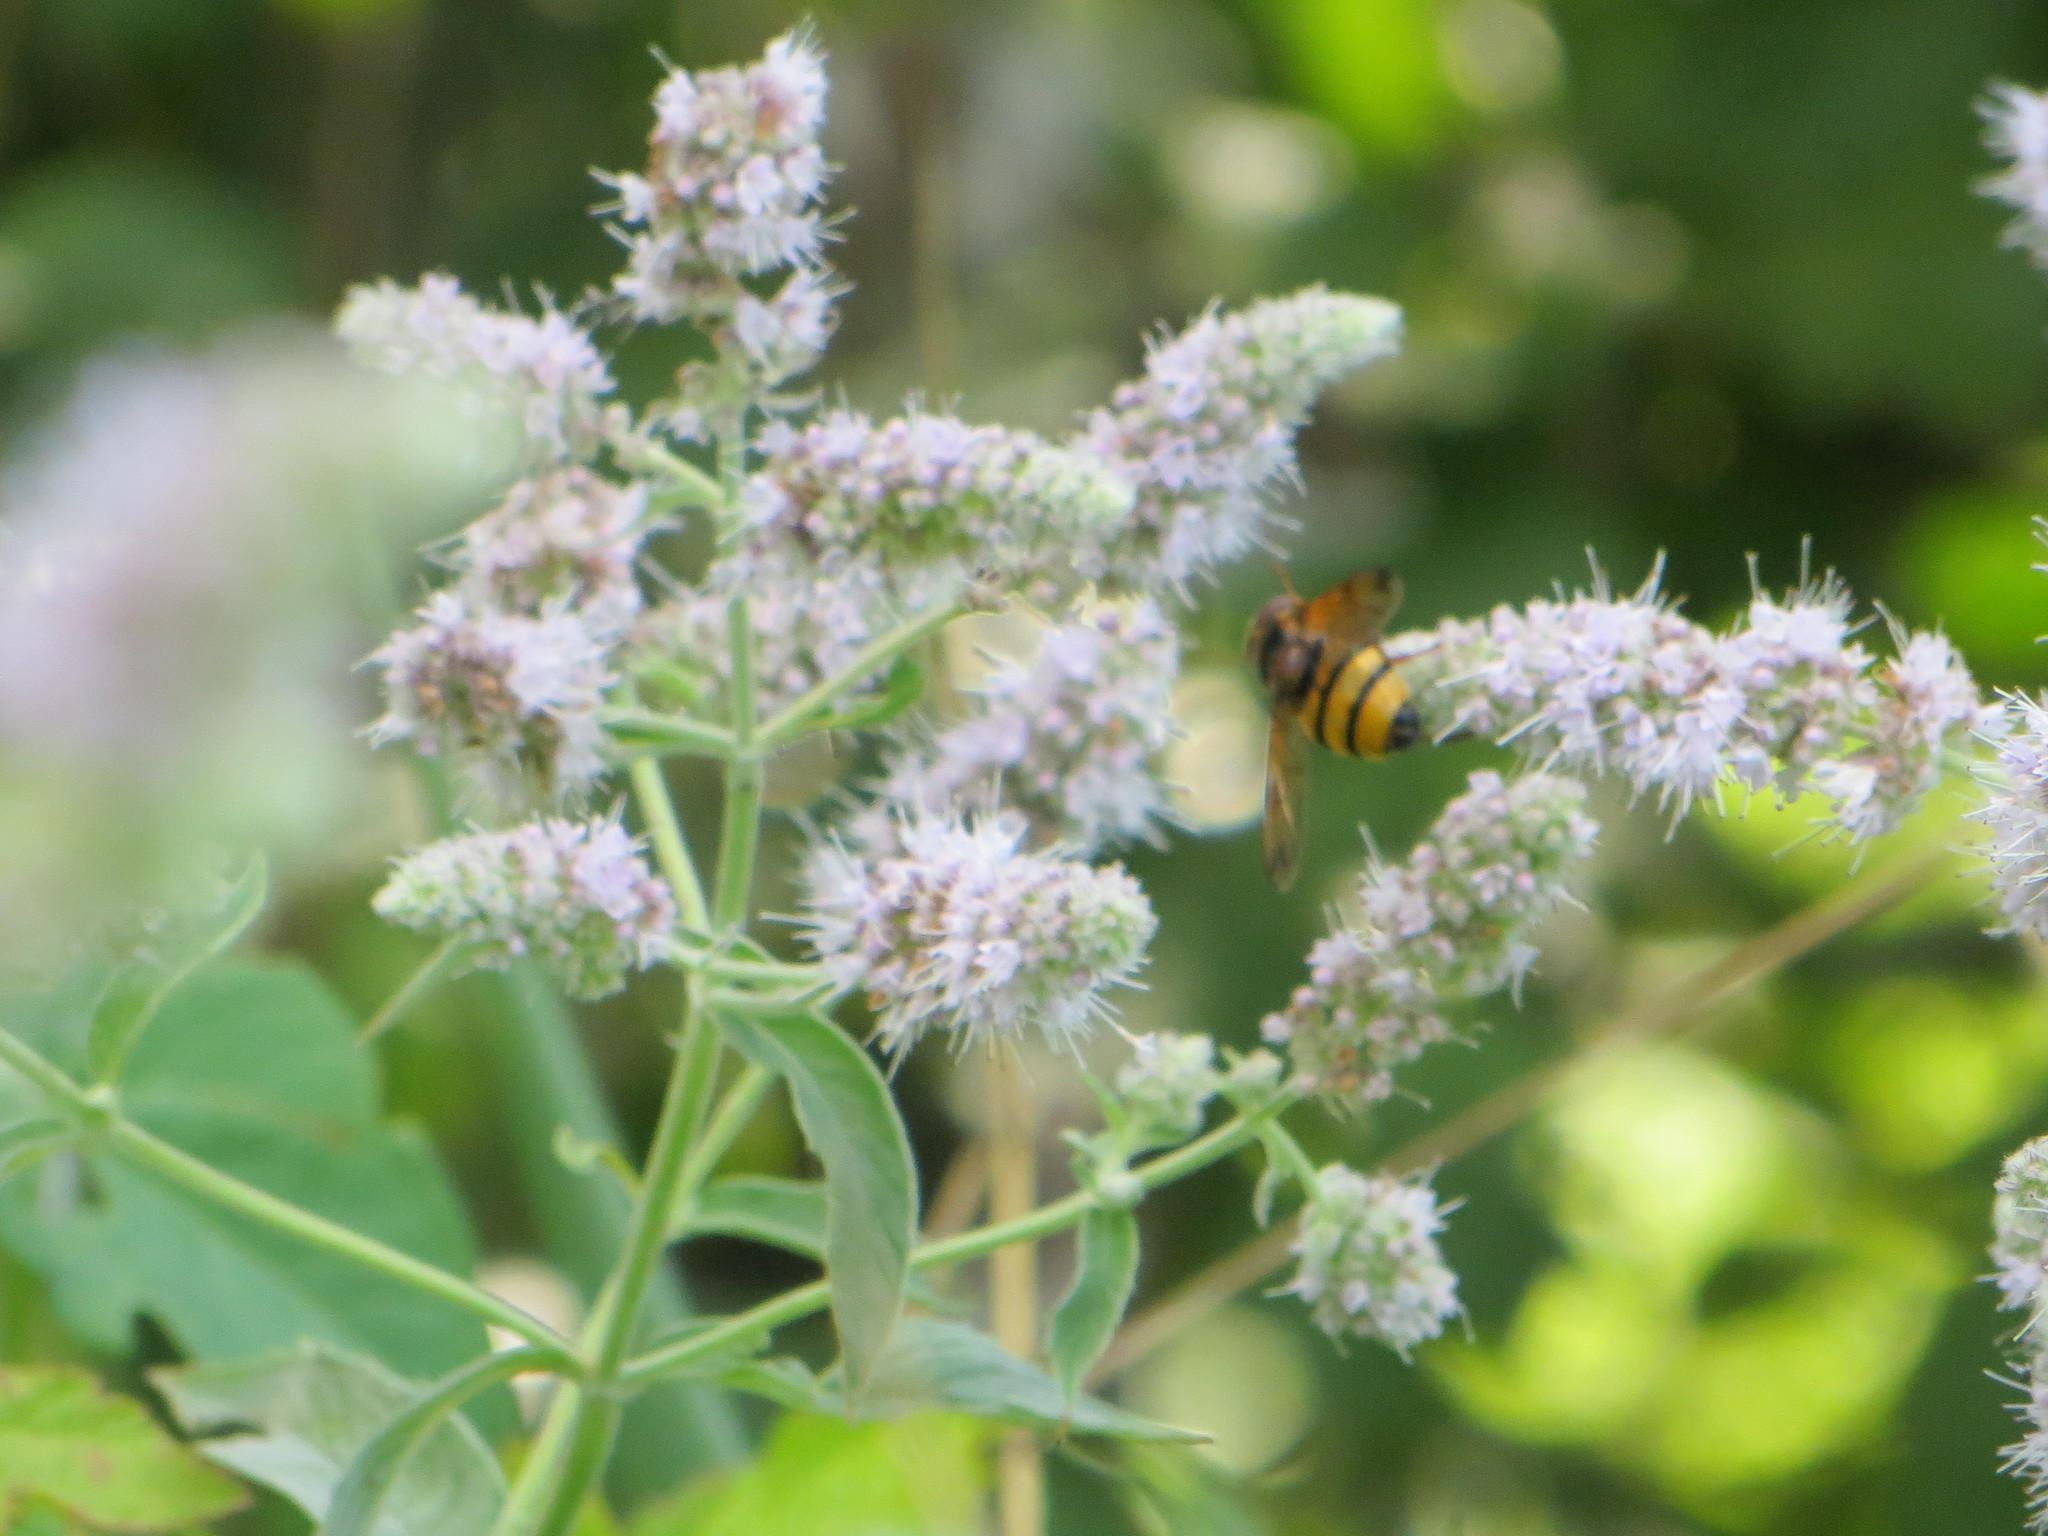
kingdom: Animalia
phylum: Arthropoda
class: Insecta
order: Diptera
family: Syrphidae
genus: Volucella
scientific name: Volucella inanis
